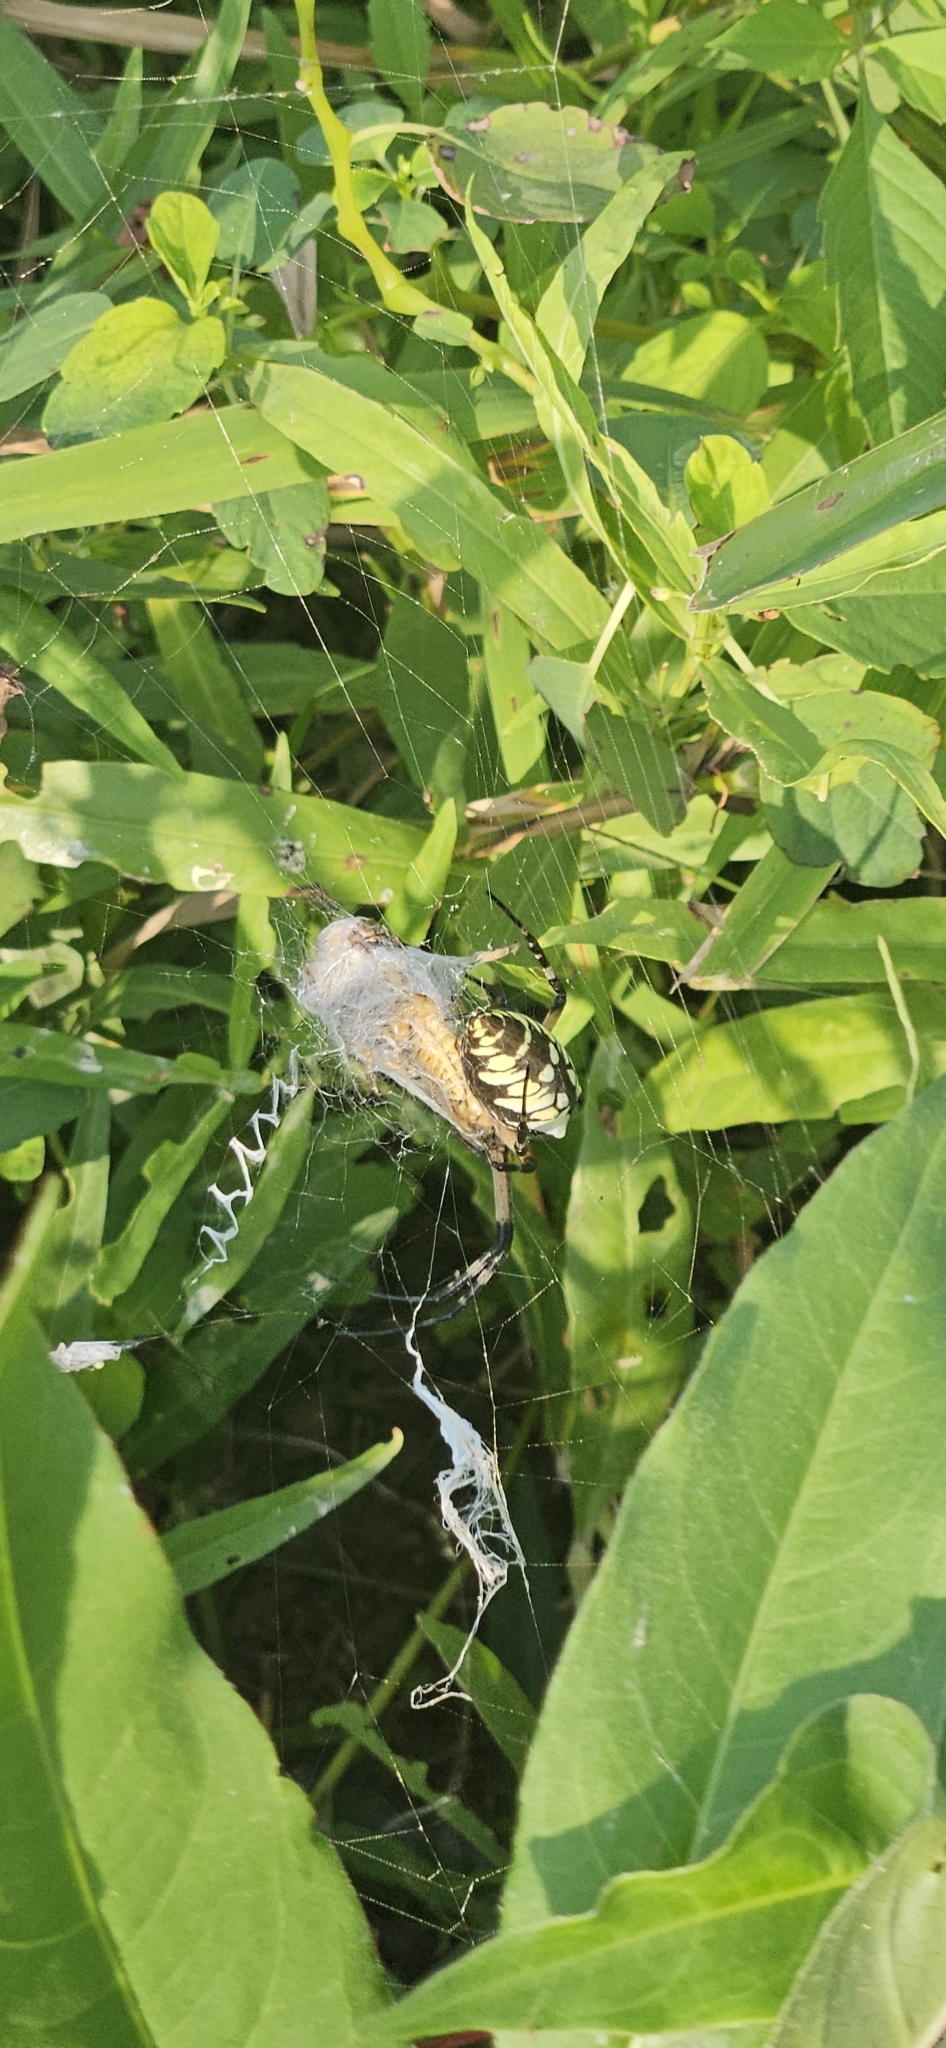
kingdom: Animalia
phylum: Arthropoda
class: Arachnida
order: Araneae
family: Araneidae
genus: Argiope
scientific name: Argiope aurantia
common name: Orb weavers
